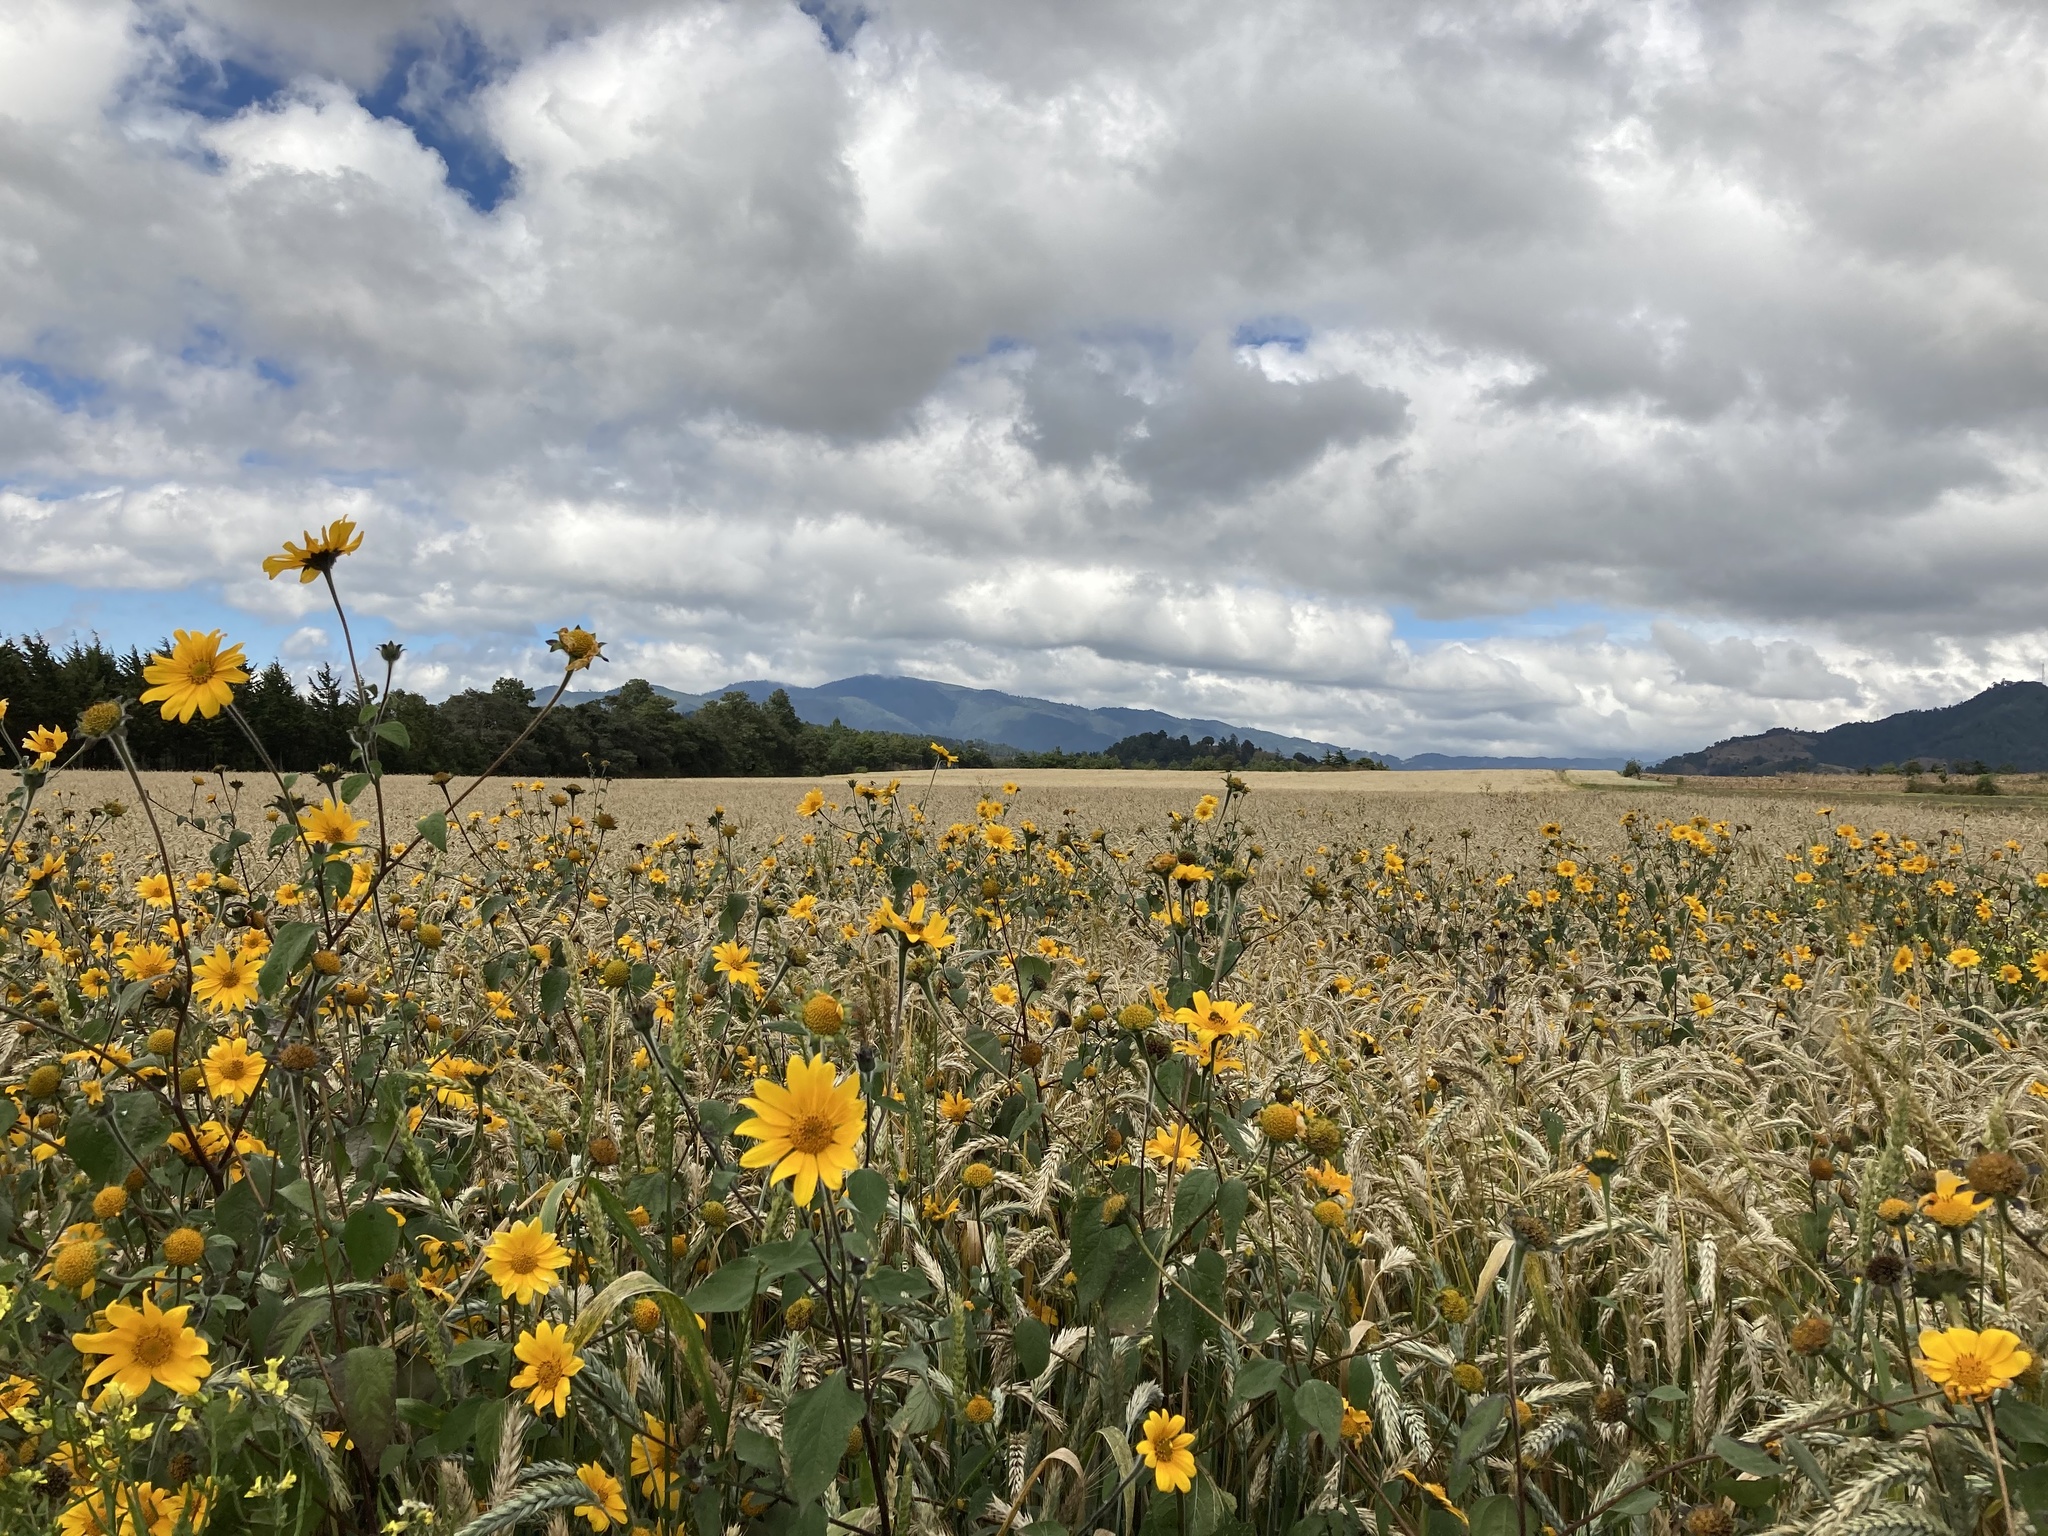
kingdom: Plantae
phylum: Tracheophyta
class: Magnoliopsida
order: Asterales
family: Asteraceae
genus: Tithonia
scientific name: Tithonia tubaeformis
